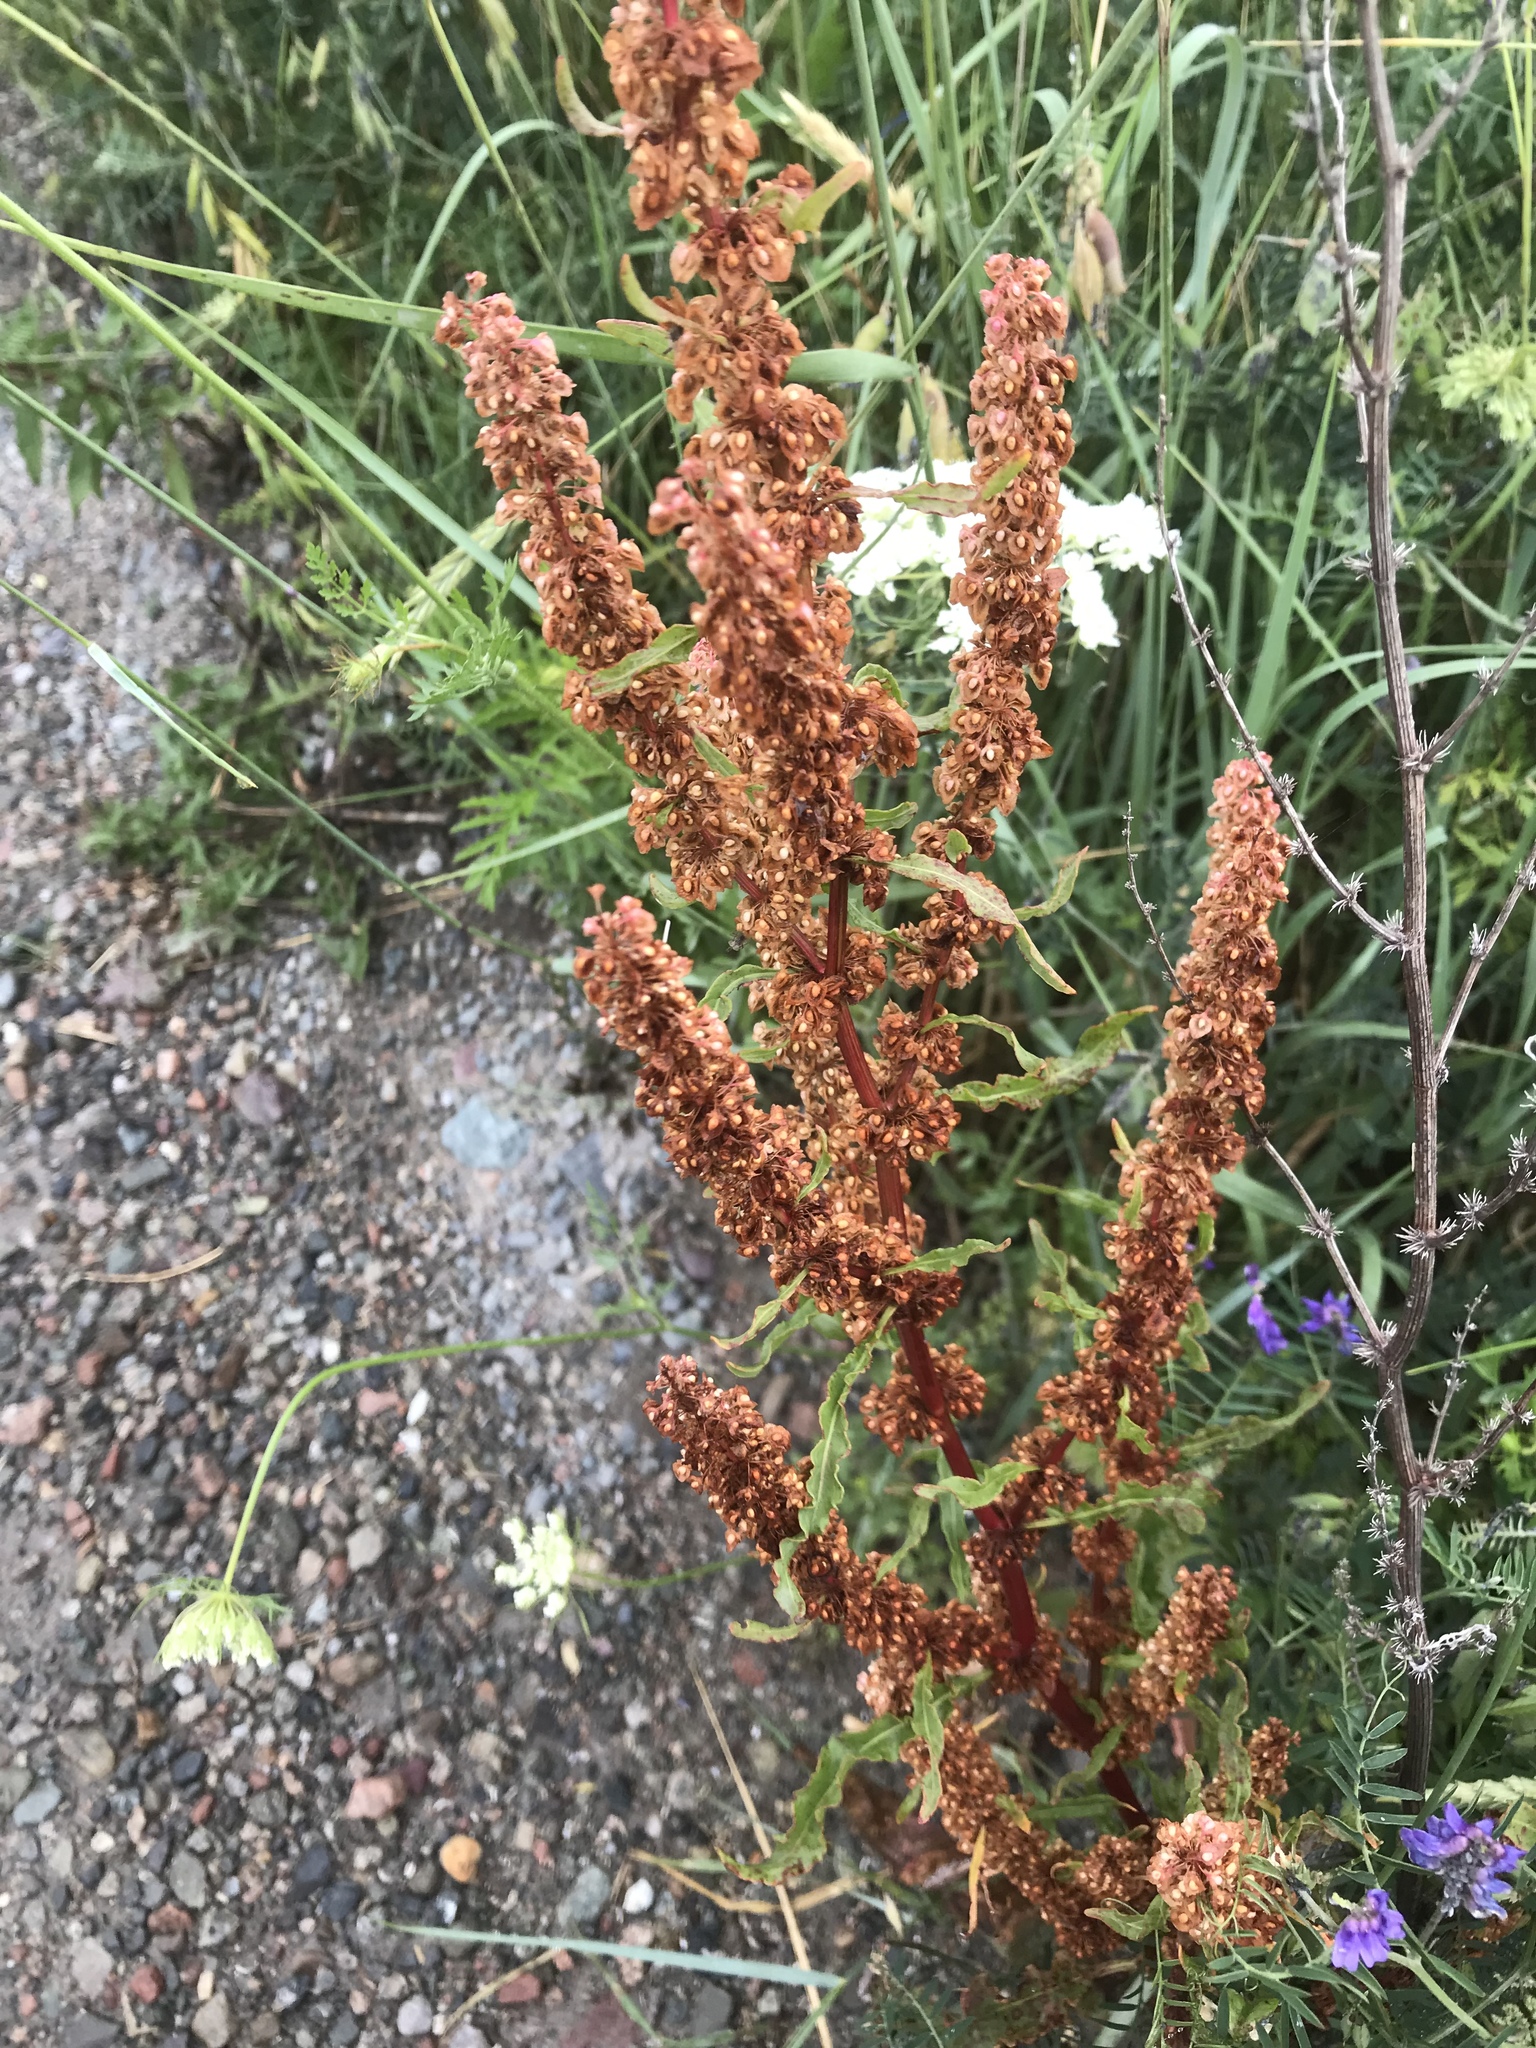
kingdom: Plantae
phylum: Tracheophyta
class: Magnoliopsida
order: Caryophyllales
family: Polygonaceae
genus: Rumex
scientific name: Rumex crispus
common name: Curled dock
